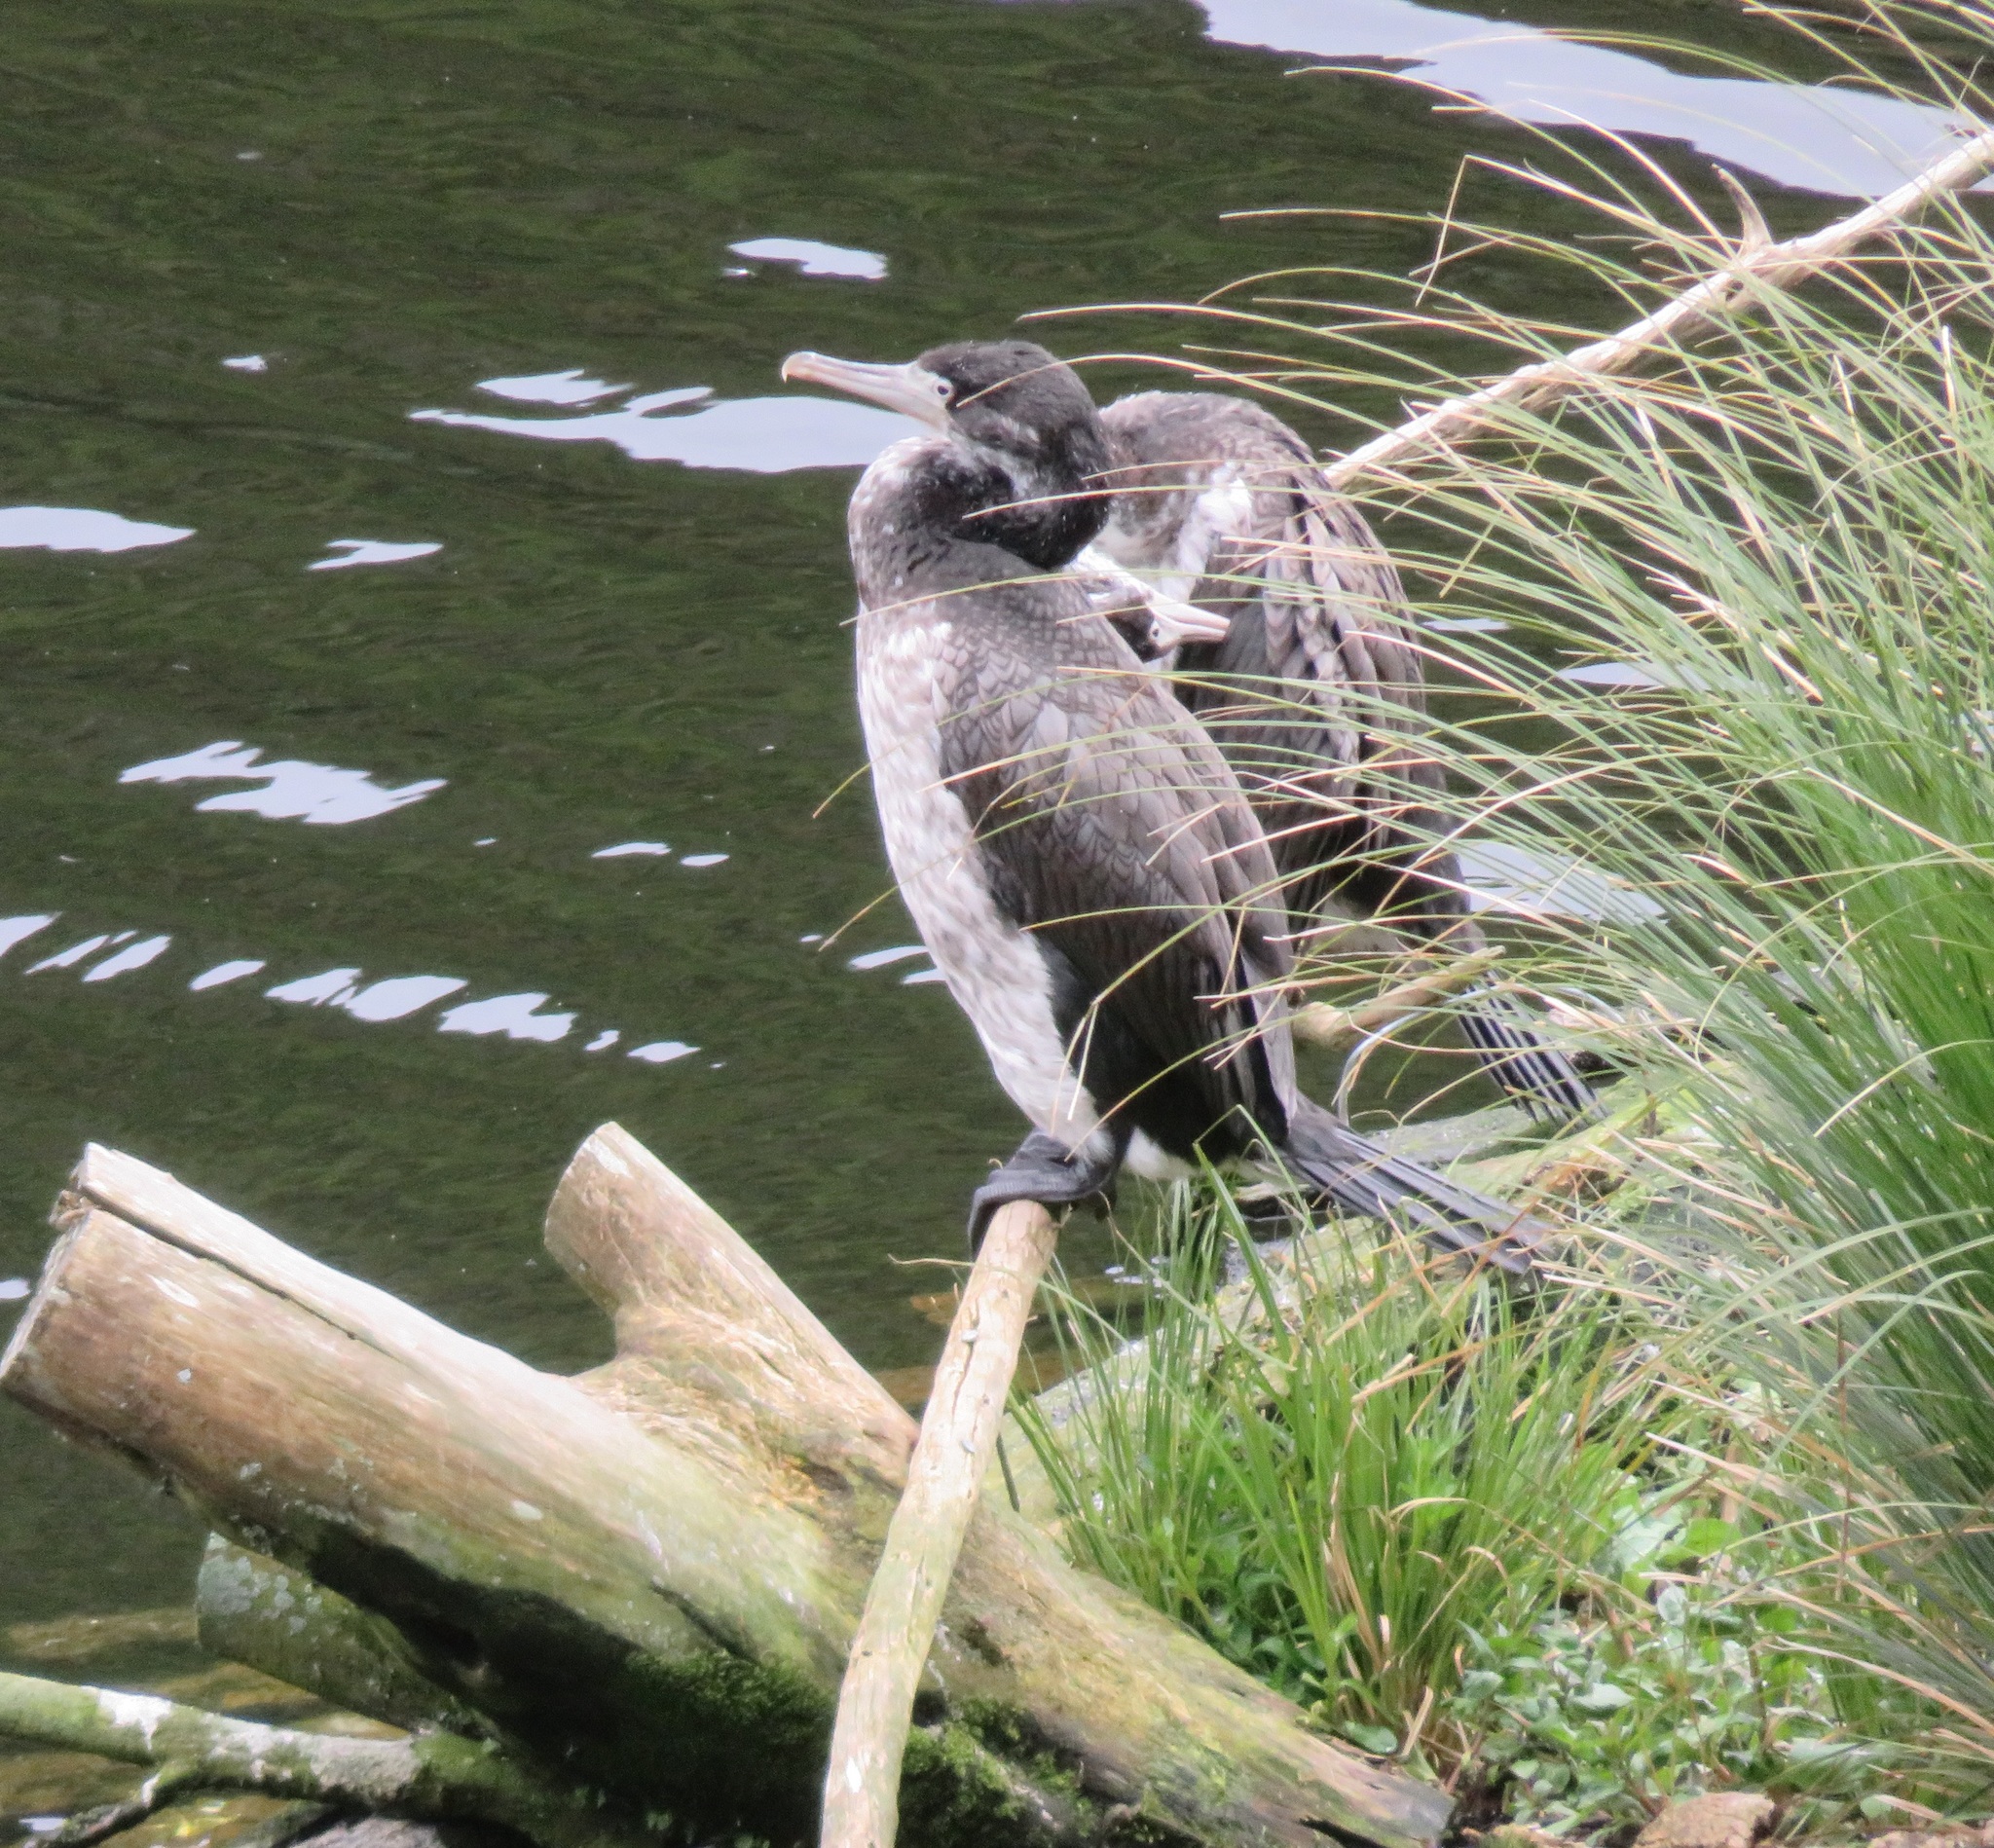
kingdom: Animalia
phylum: Chordata
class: Aves
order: Suliformes
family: Phalacrocoracidae
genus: Phalacrocorax
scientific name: Phalacrocorax varius
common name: Pied cormorant
